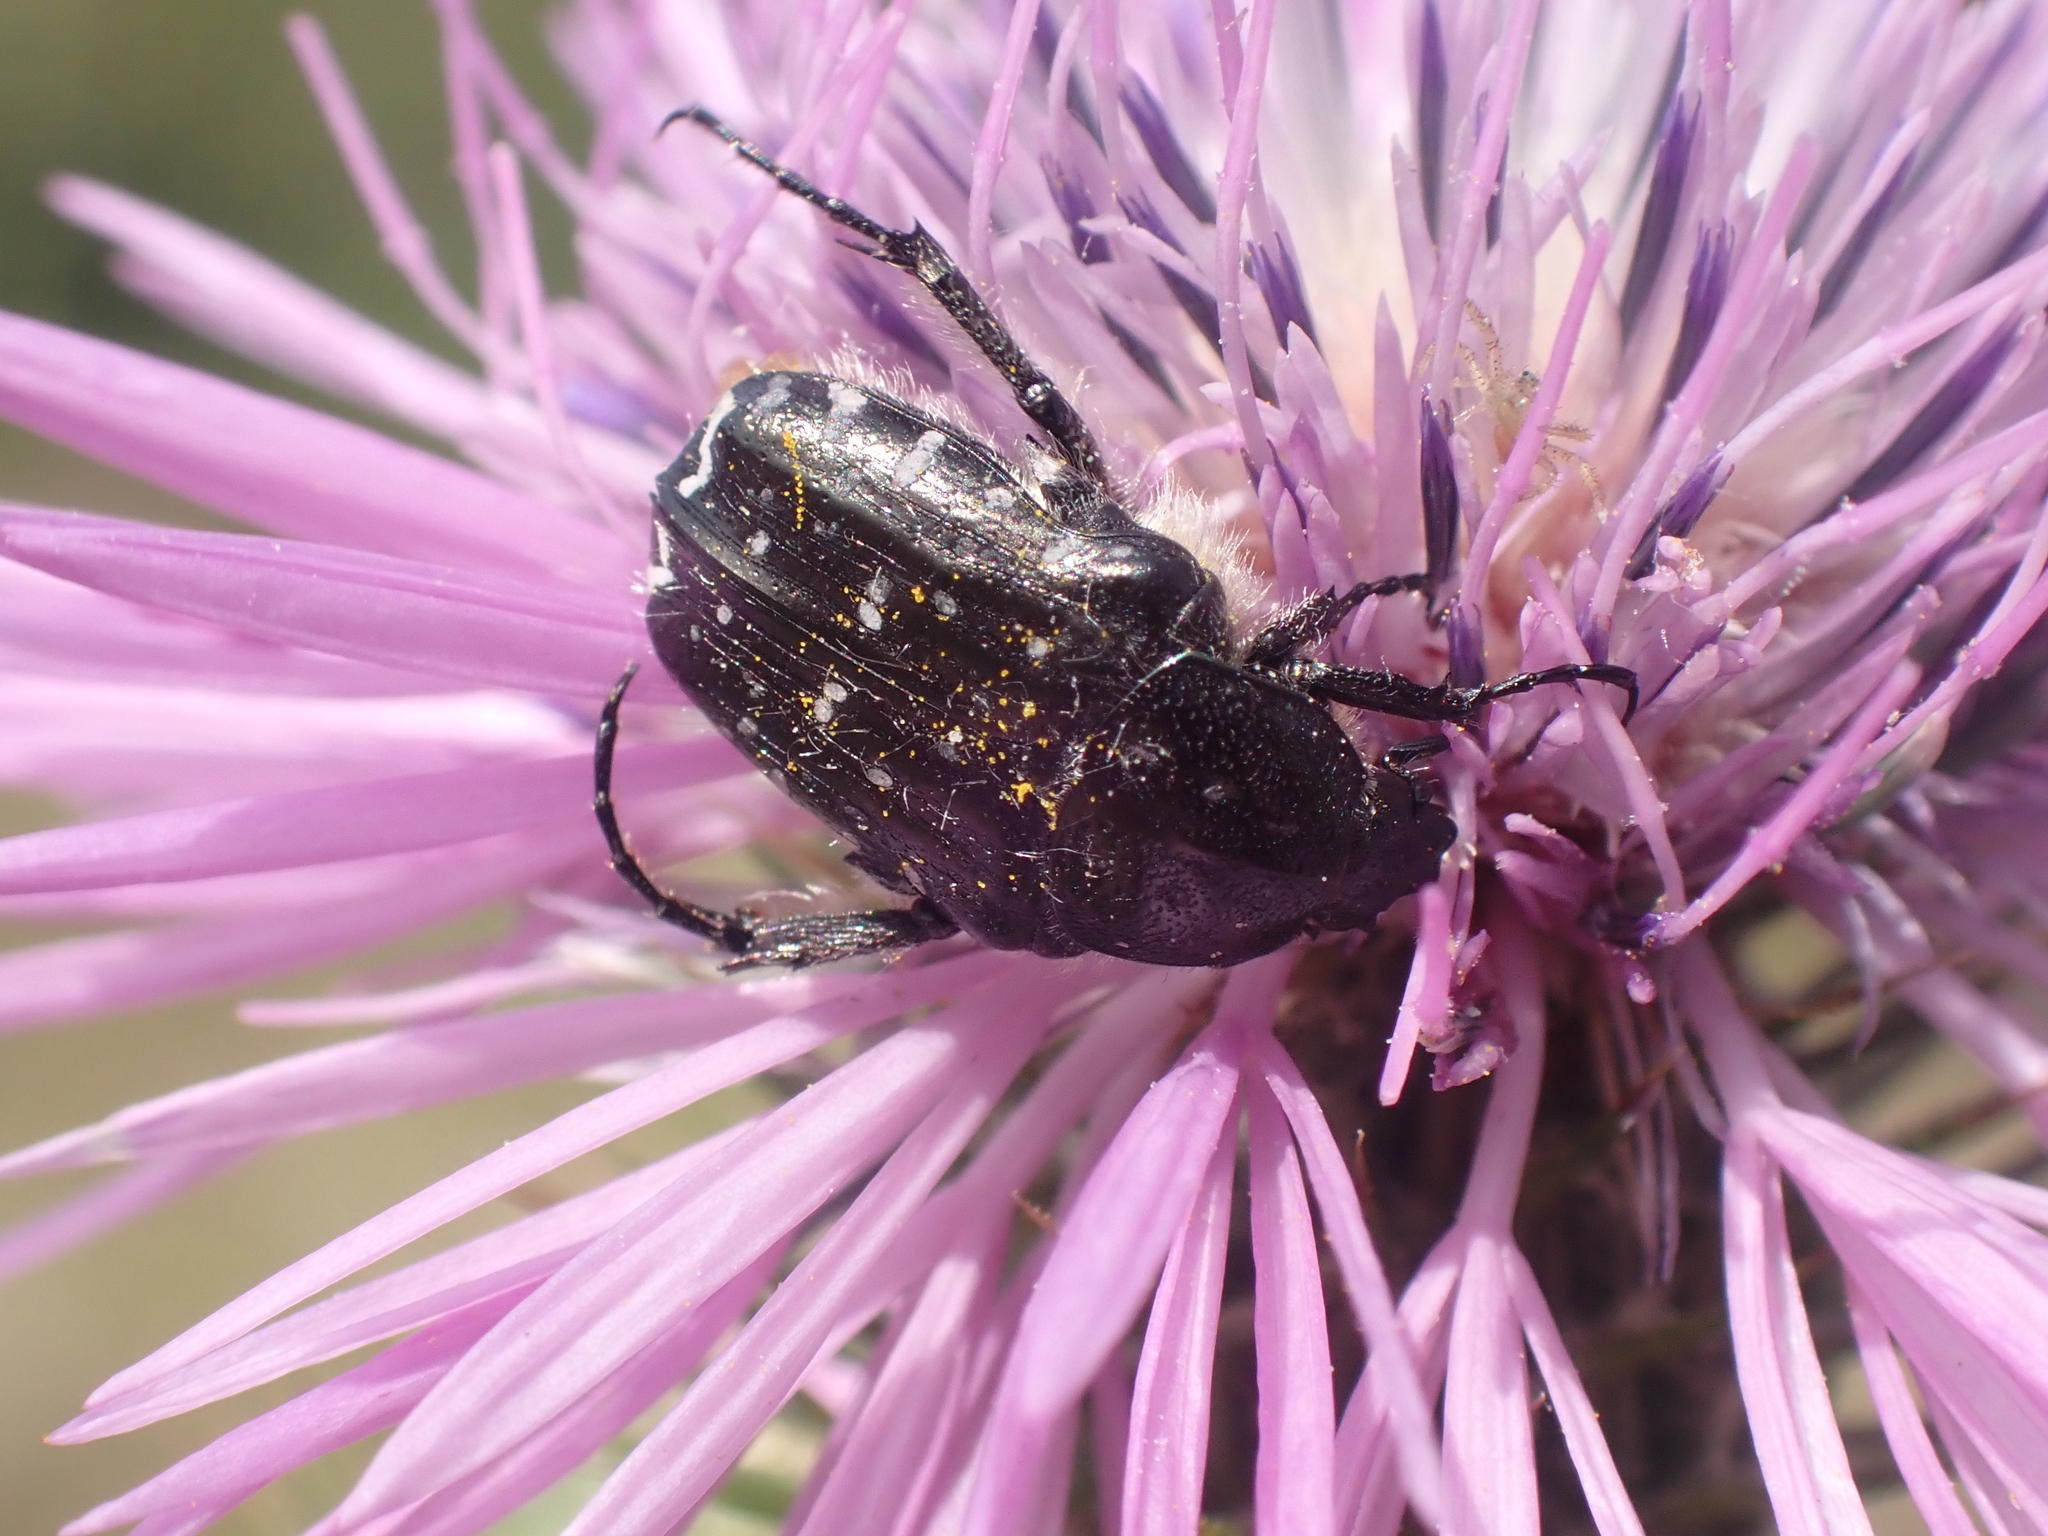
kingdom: Animalia
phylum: Arthropoda
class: Insecta
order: Coleoptera
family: Scarabaeidae
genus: Oxythyrea
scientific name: Oxythyrea funesta
